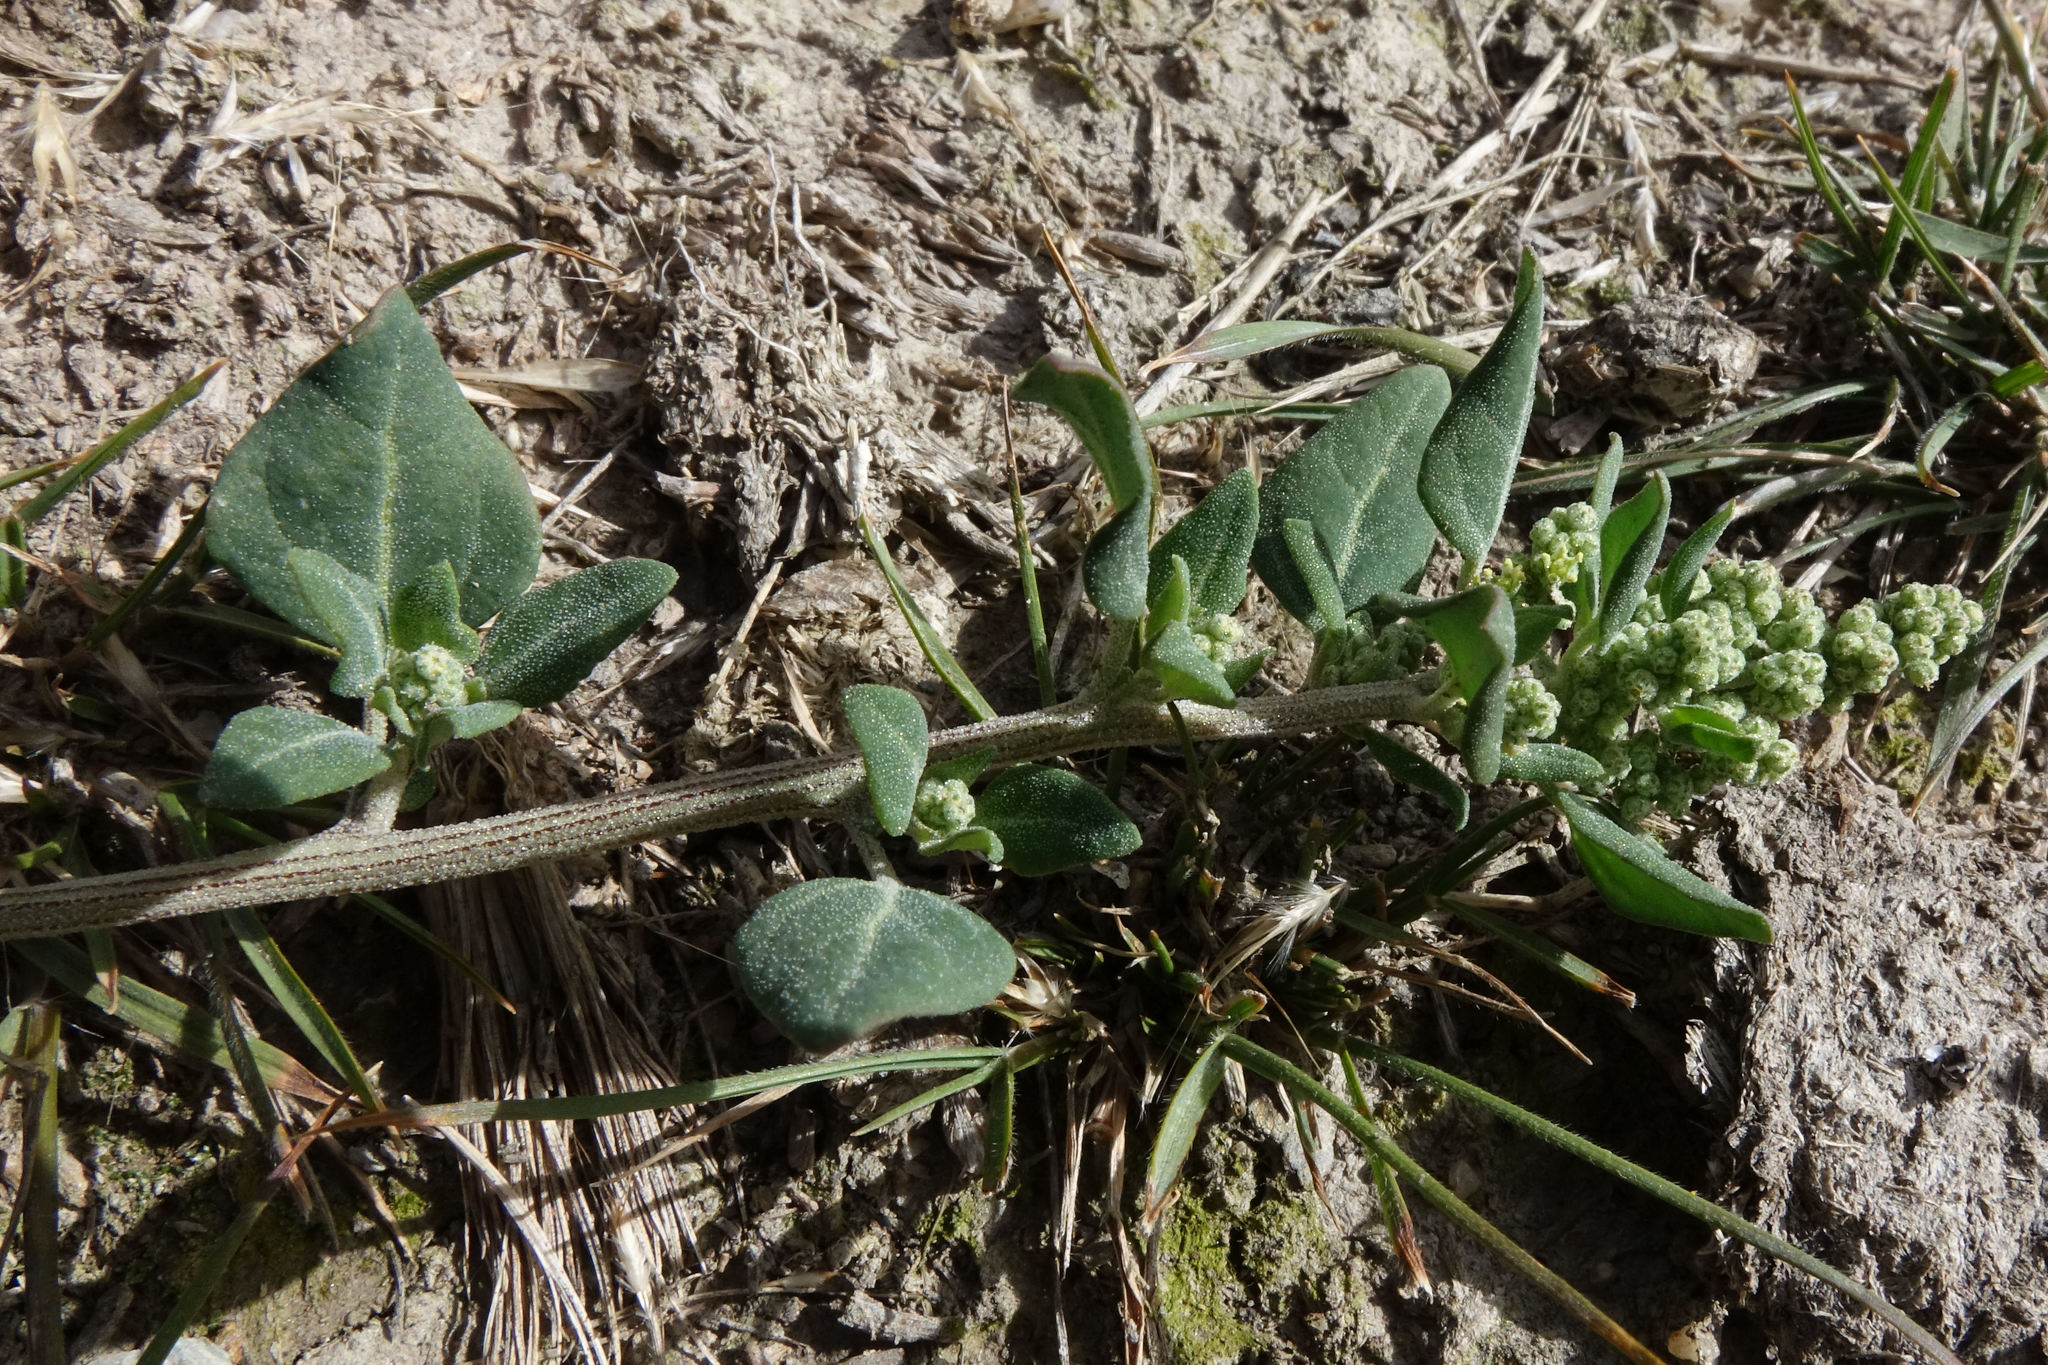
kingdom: Plantae
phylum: Tracheophyta
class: Magnoliopsida
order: Caryophyllales
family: Amaranthaceae
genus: Chenopodium
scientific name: Chenopodium vulvaria
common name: Stinking goosefoot
